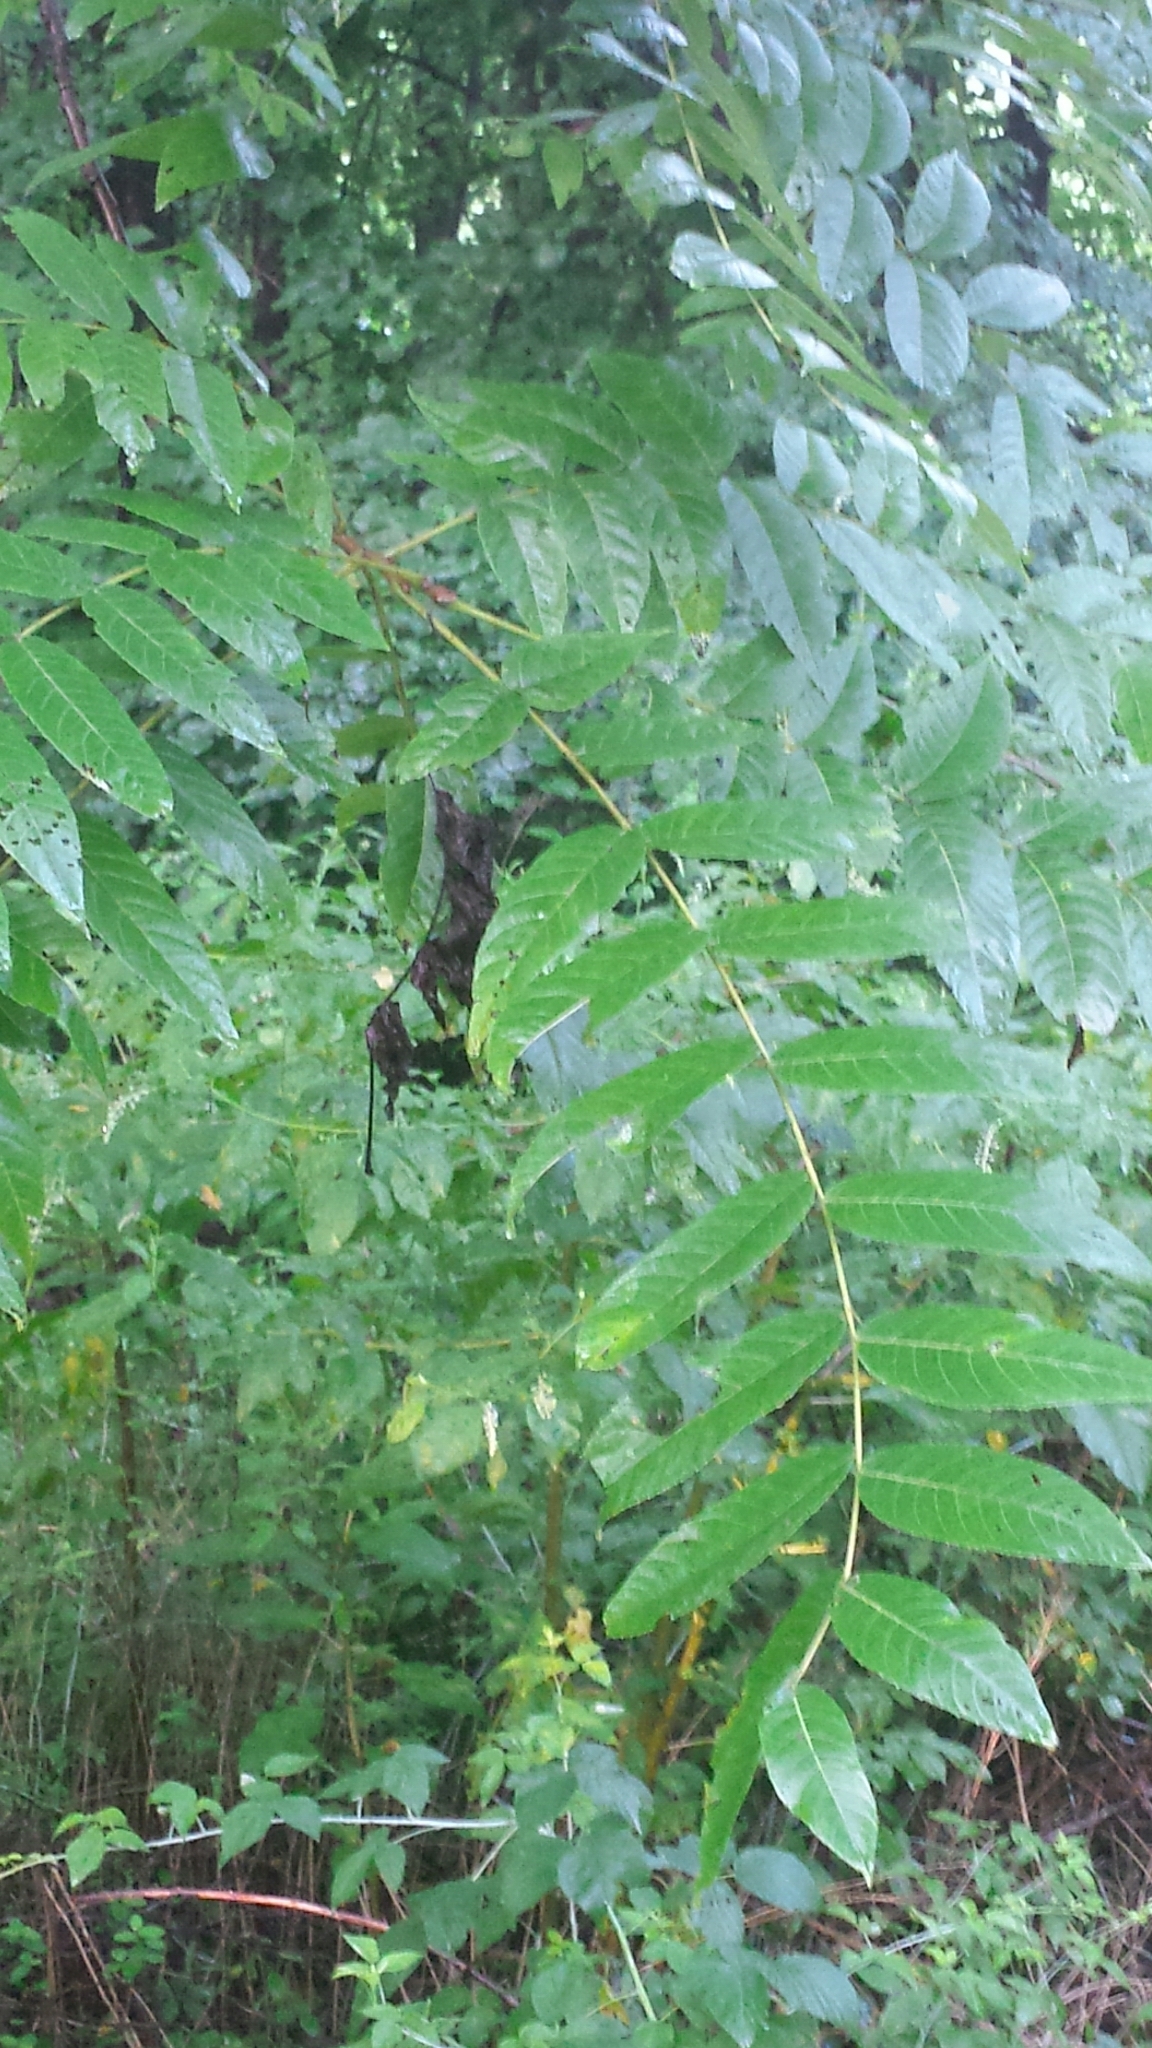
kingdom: Plantae
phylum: Tracheophyta
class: Magnoliopsida
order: Fagales
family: Juglandaceae
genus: Juglans
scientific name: Juglans nigra
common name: Black walnut
